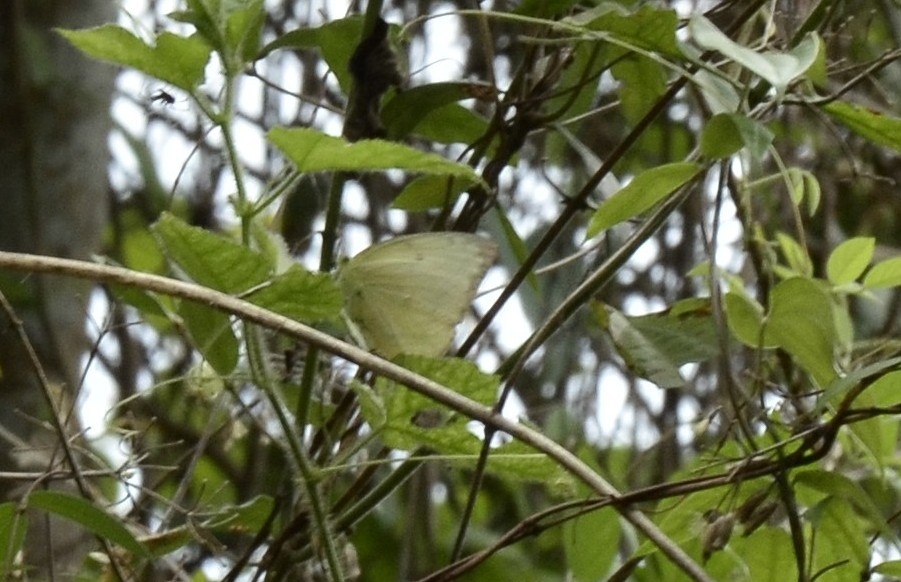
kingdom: Animalia
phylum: Arthropoda
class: Insecta
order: Lepidoptera
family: Pieridae
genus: Catopsilia
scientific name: Catopsilia pomona
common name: Common emigrant
